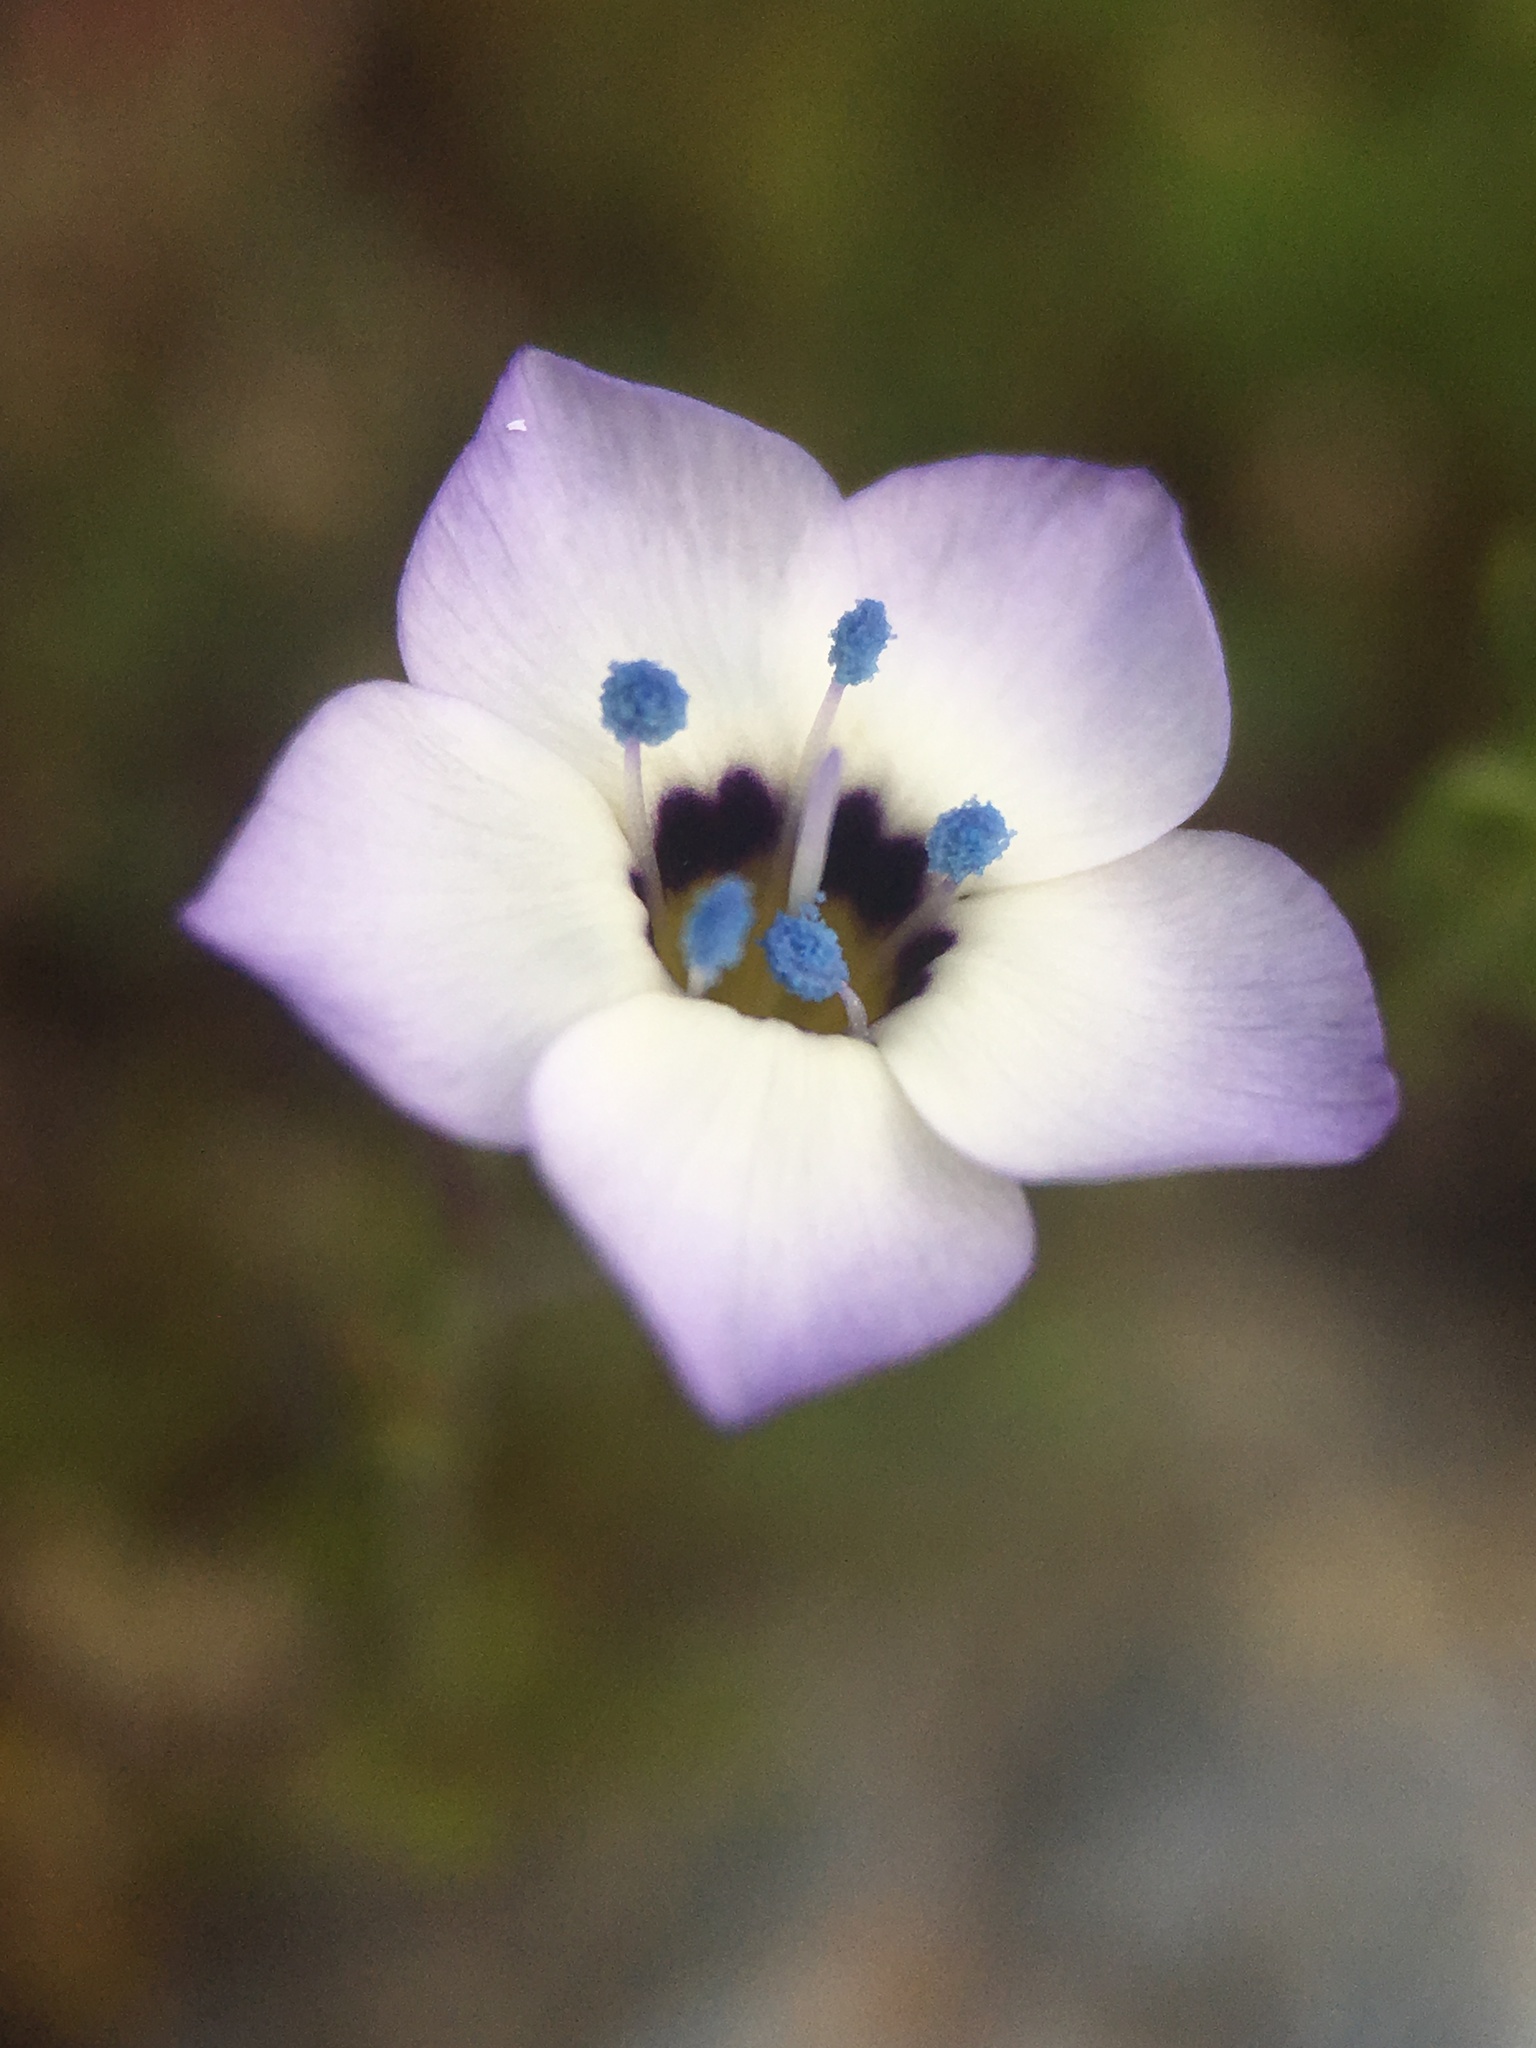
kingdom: Plantae
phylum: Tracheophyta
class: Magnoliopsida
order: Ericales
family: Polemoniaceae
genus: Gilia
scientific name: Gilia tricolor
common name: Bird's-eyes
